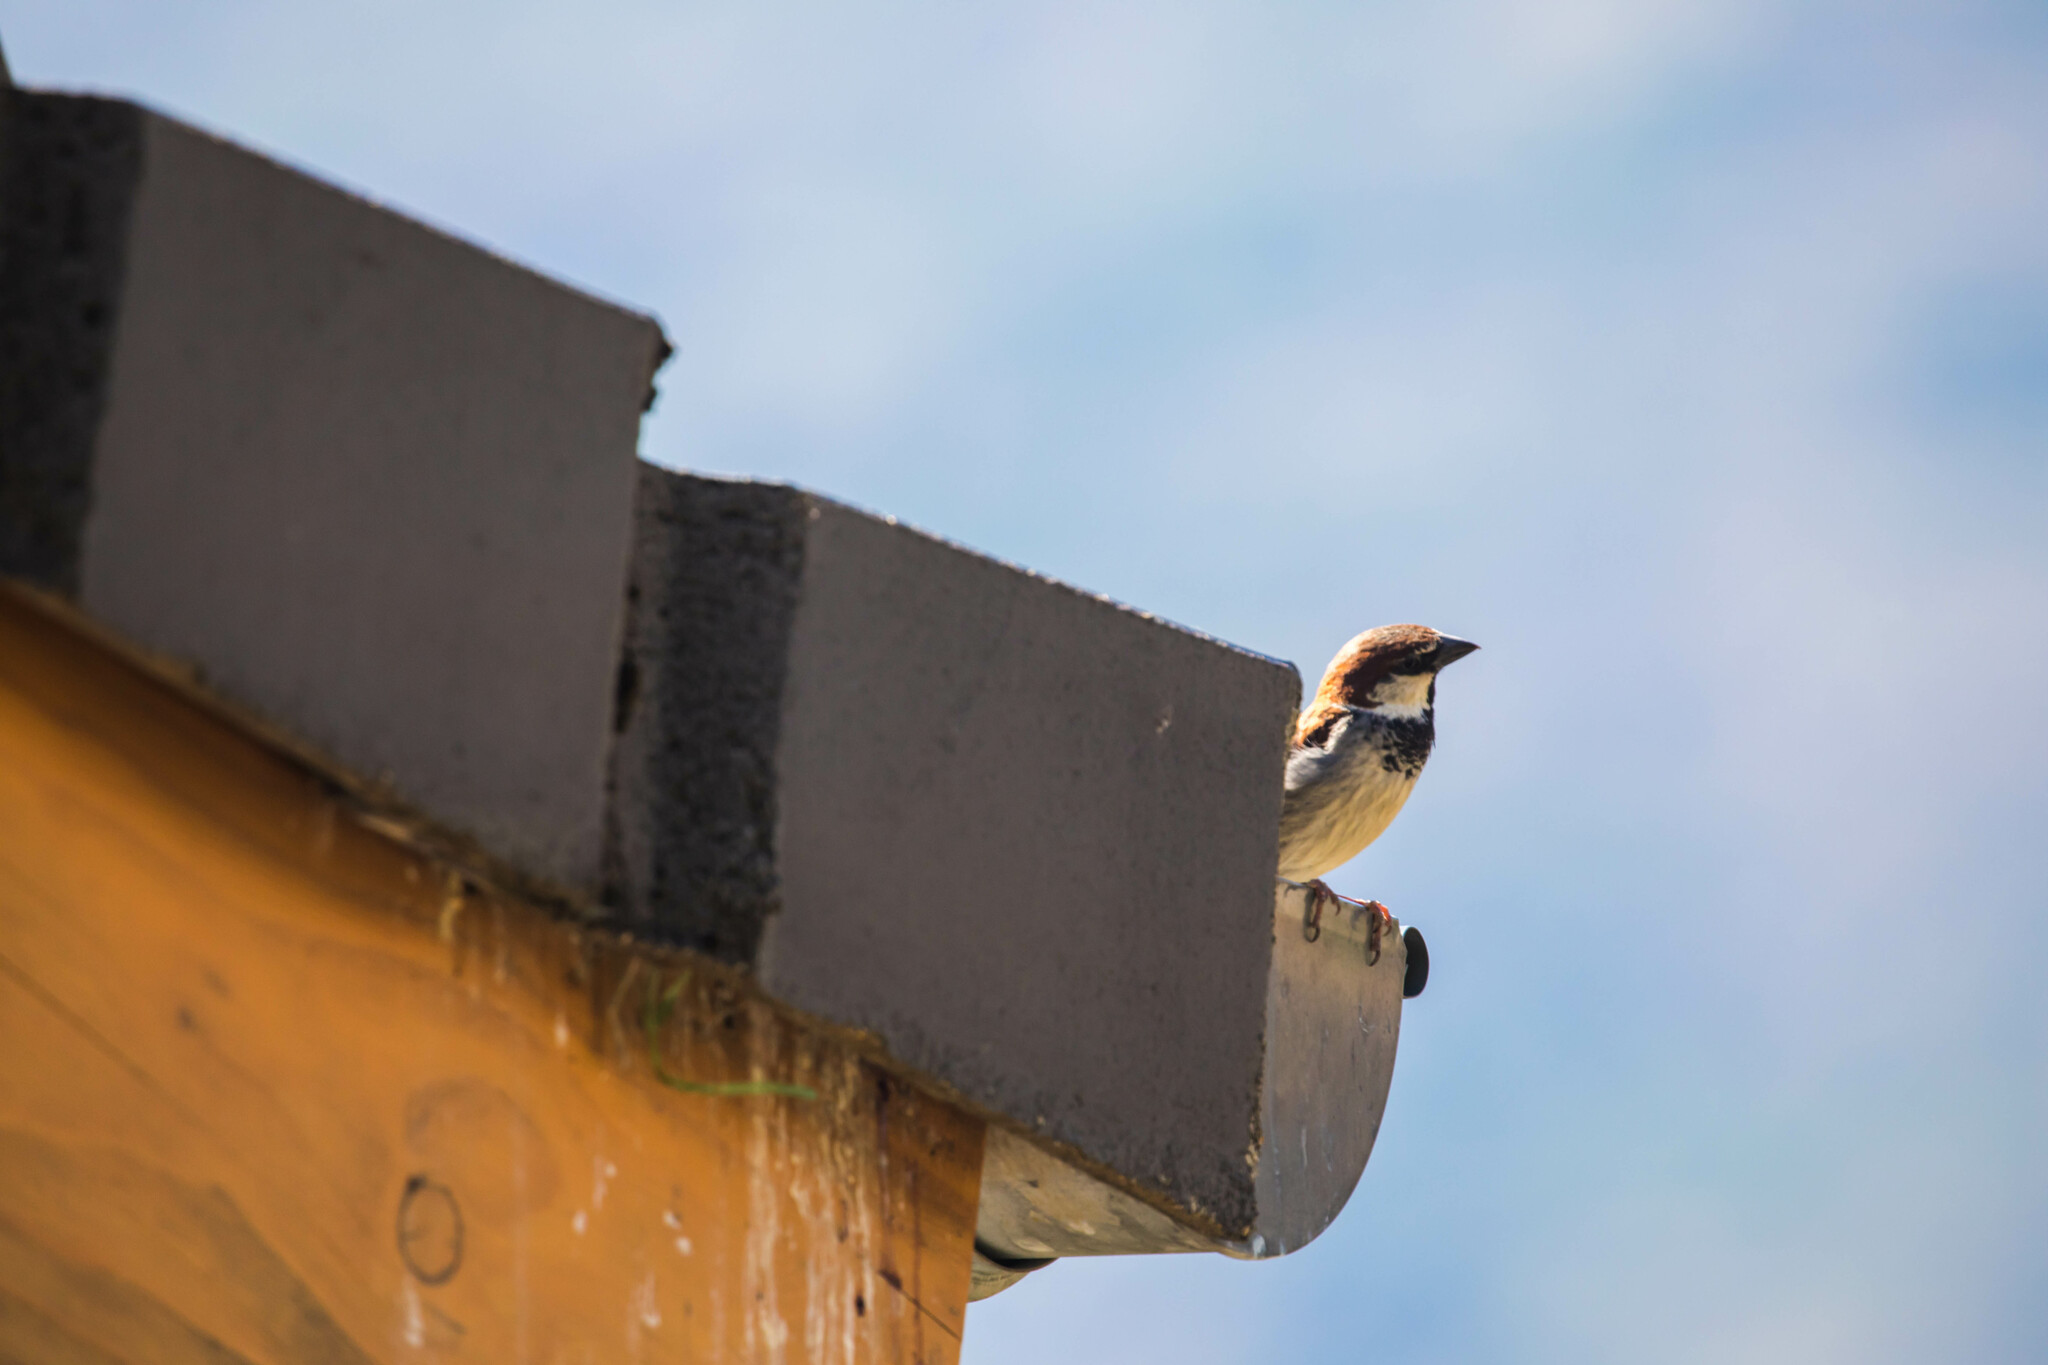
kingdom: Animalia
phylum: Chordata
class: Aves
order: Passeriformes
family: Passeridae
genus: Passer
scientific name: Passer italiae
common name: Italian sparrow
